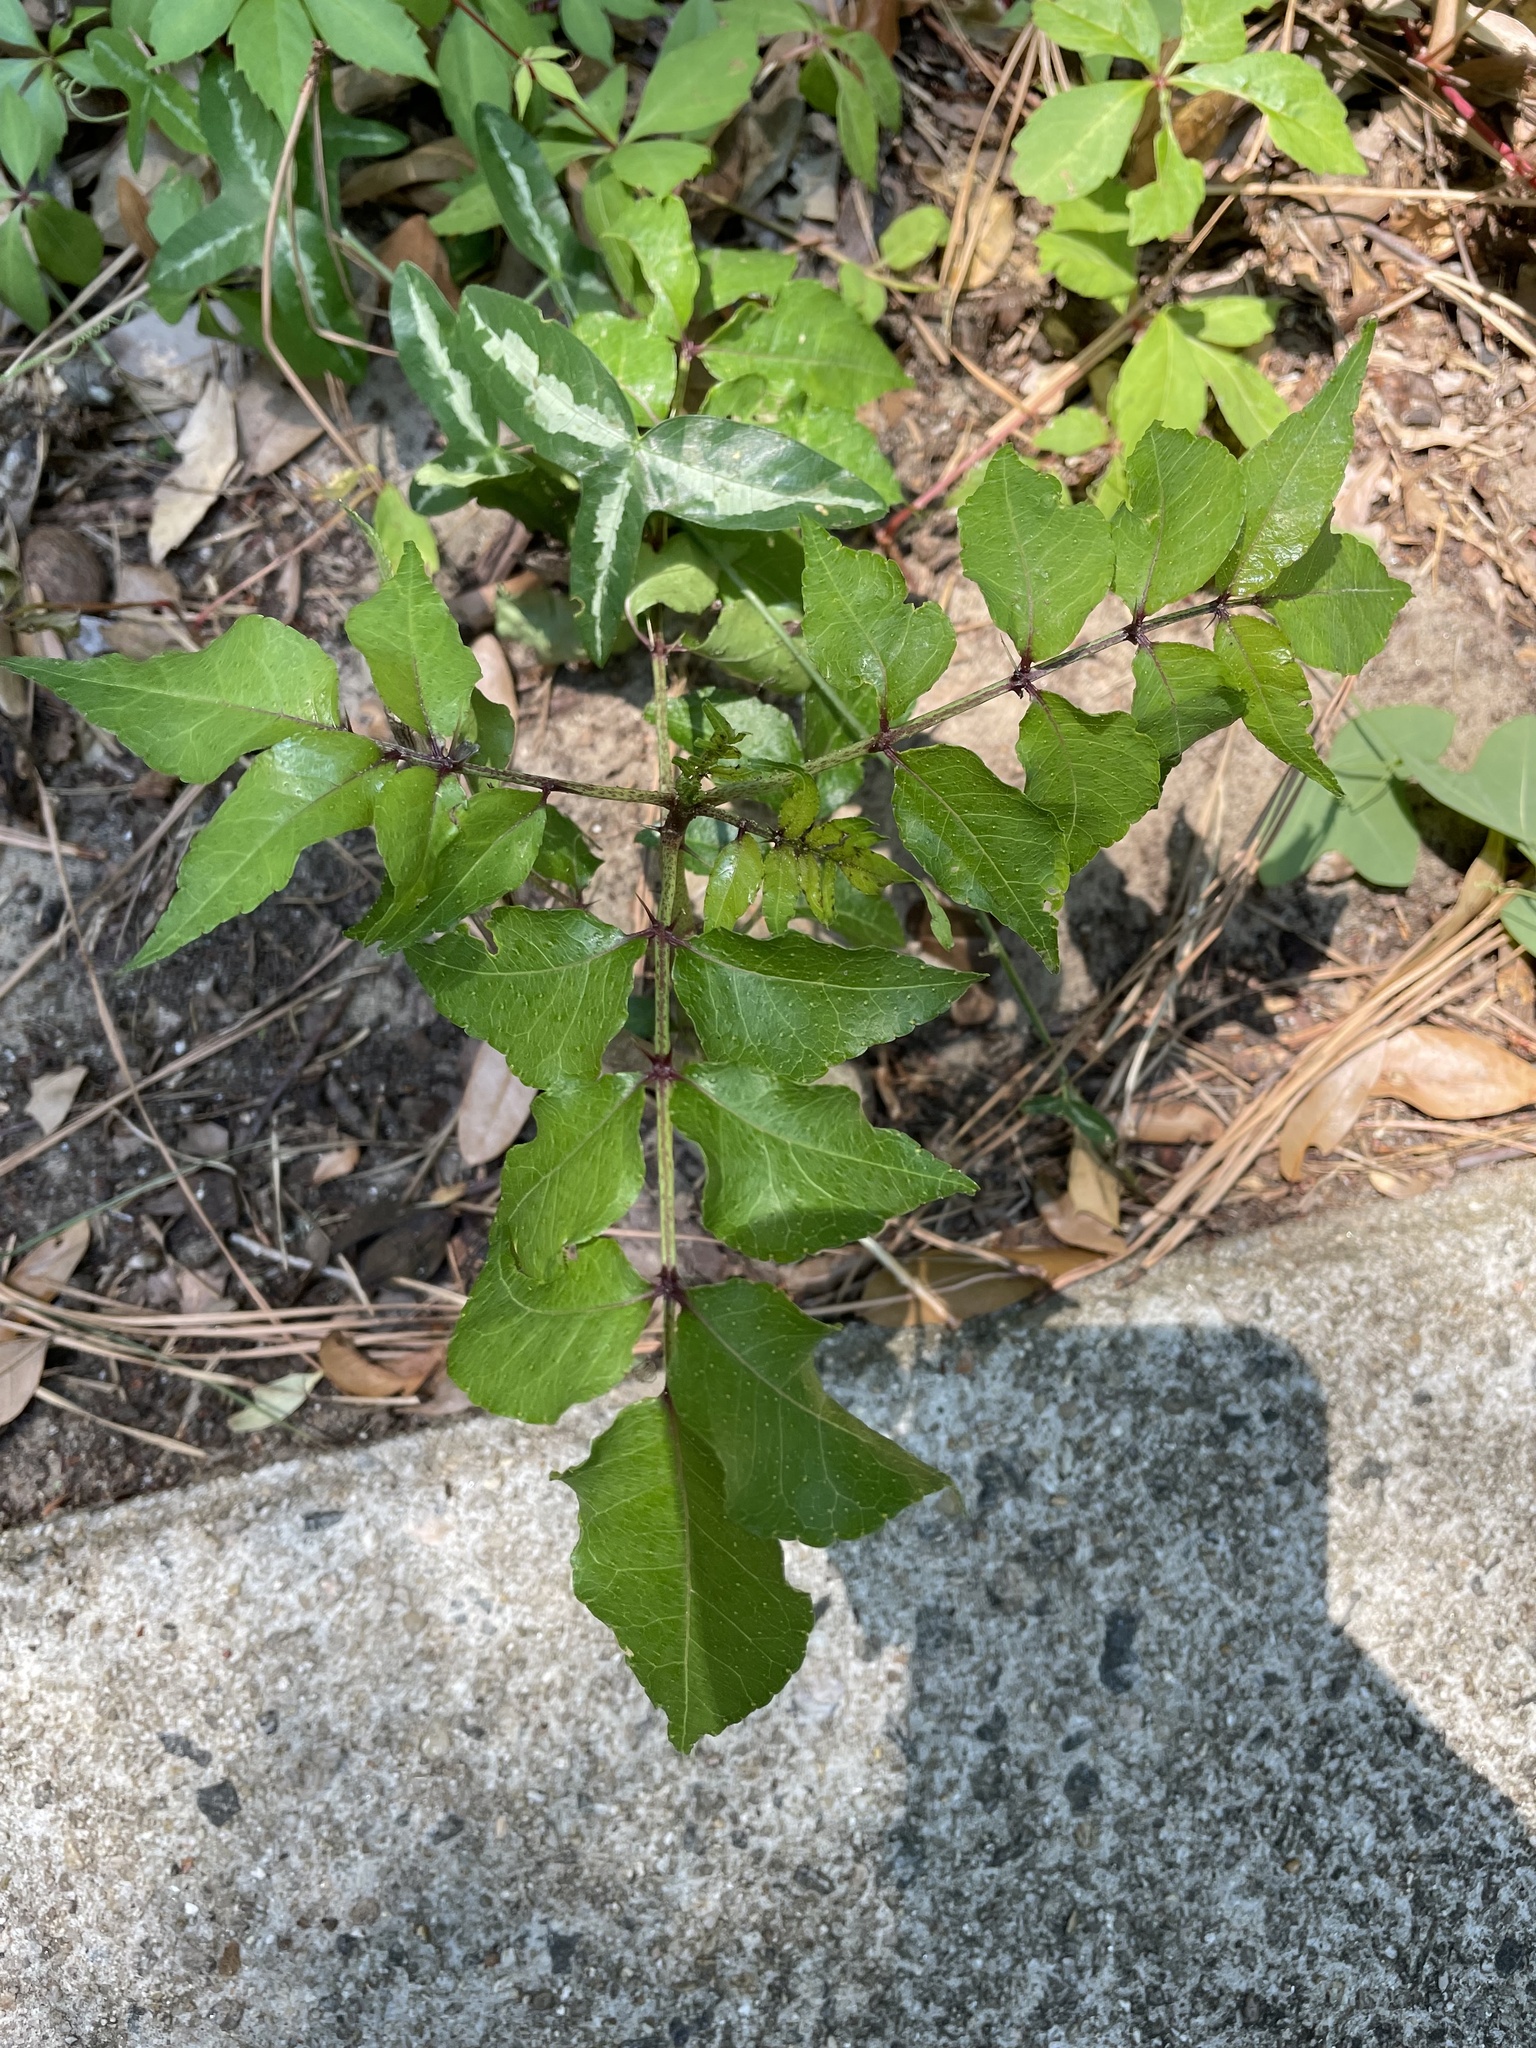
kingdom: Plantae
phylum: Tracheophyta
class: Magnoliopsida
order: Sapindales
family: Rutaceae
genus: Zanthoxylum
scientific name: Zanthoxylum clava-herculis
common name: Hercules'-club
